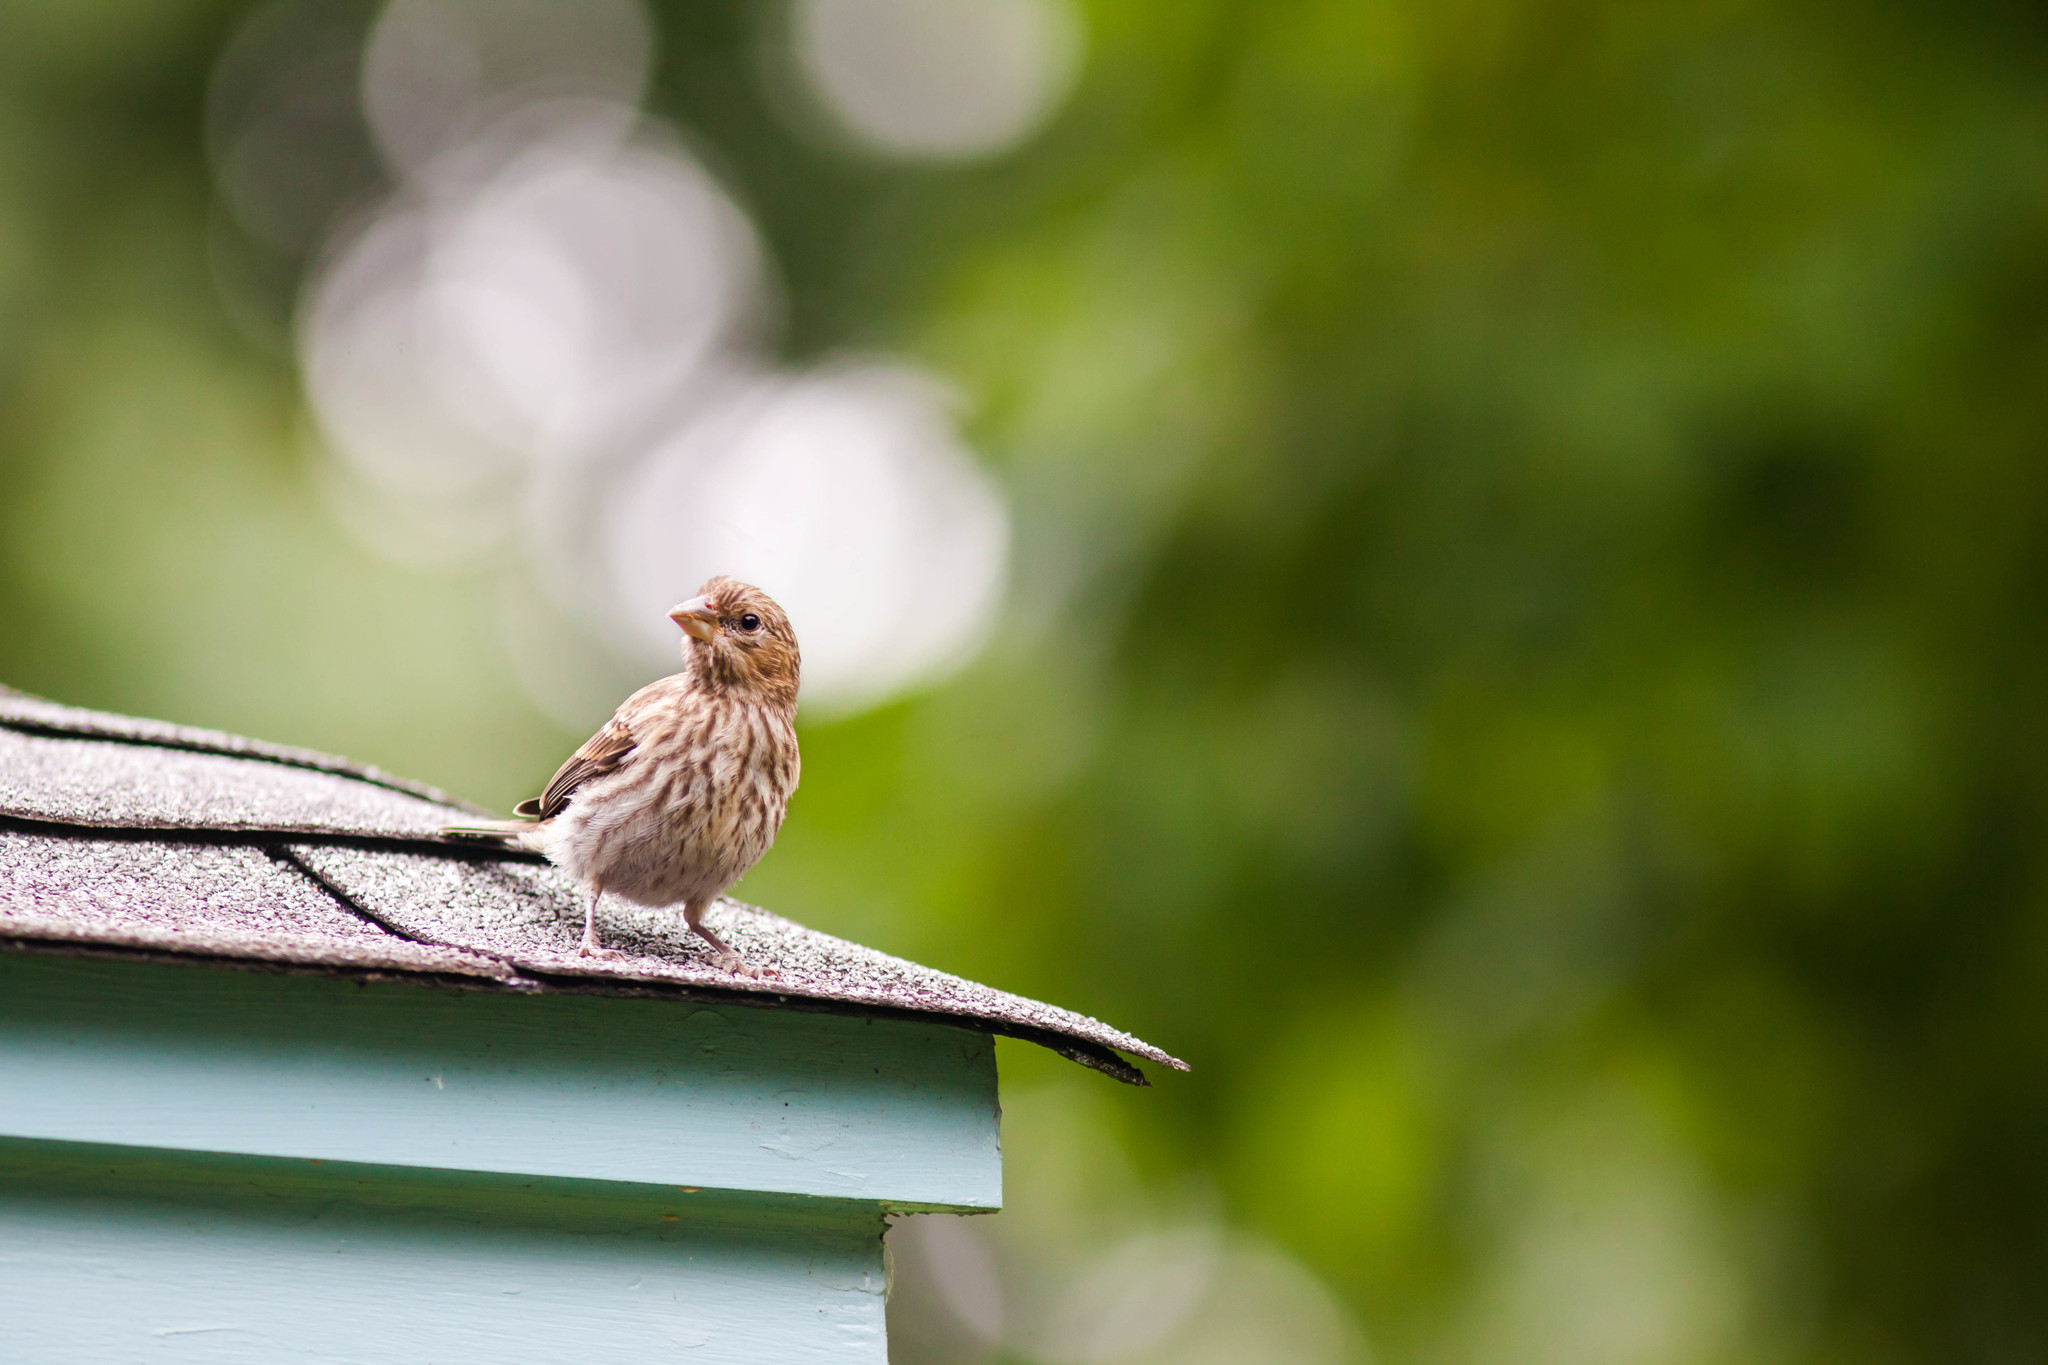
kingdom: Animalia
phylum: Chordata
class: Aves
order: Passeriformes
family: Fringillidae
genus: Haemorhous
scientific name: Haemorhous mexicanus
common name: House finch
